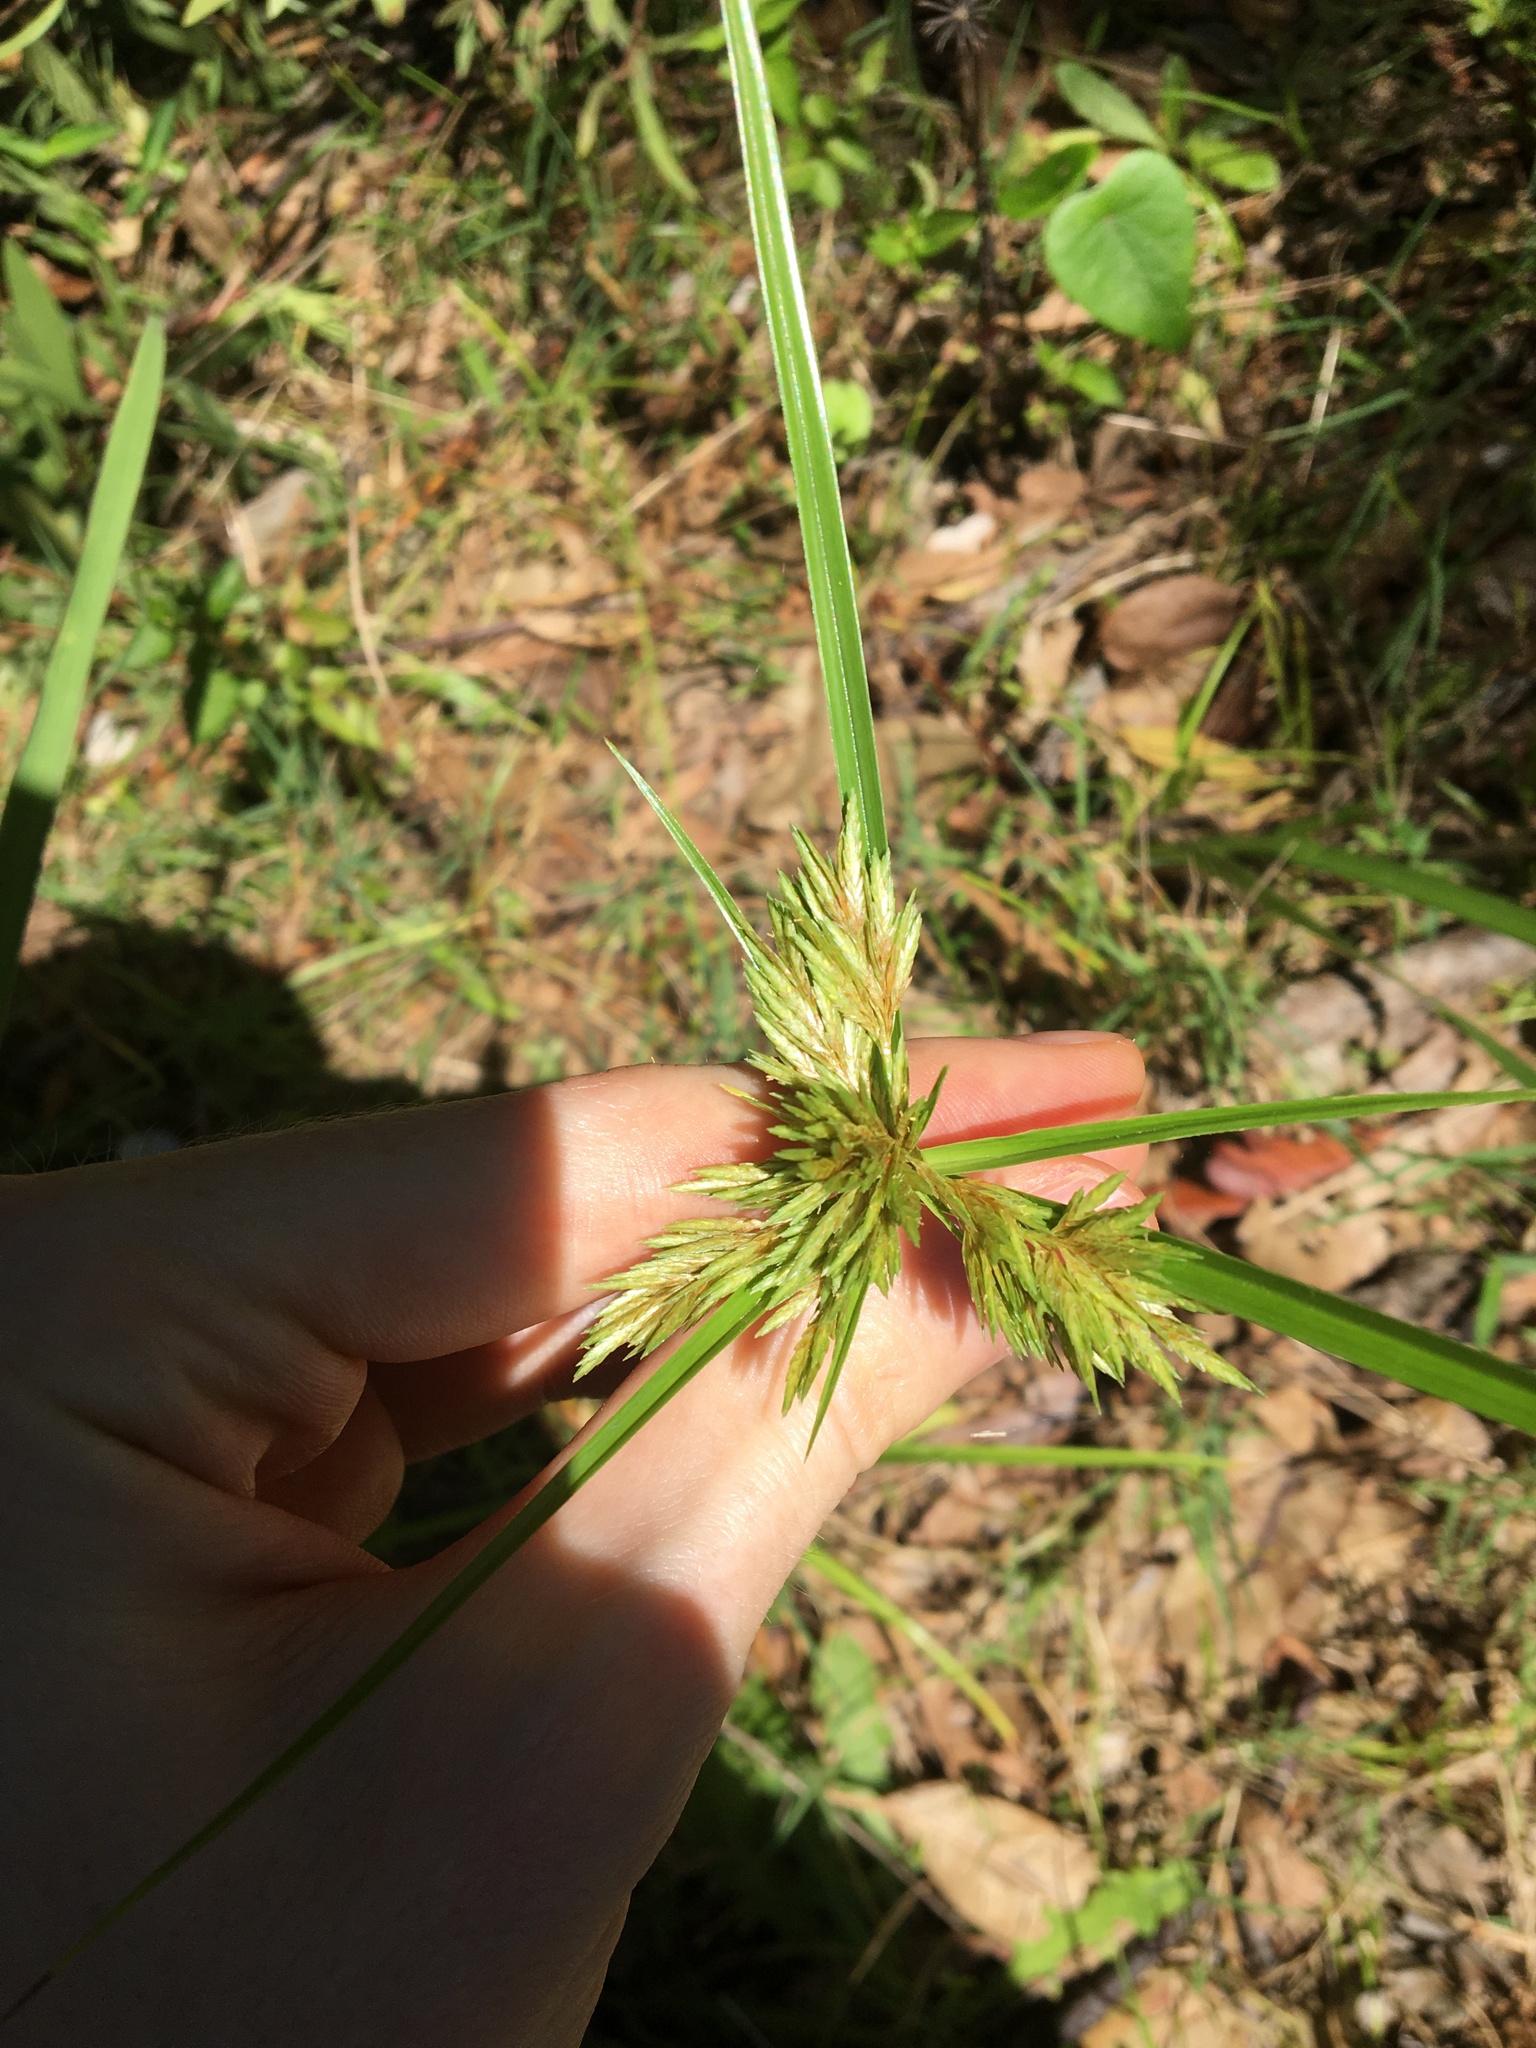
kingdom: Plantae
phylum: Tracheophyta
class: Liliopsida
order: Poales
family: Cyperaceae
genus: Cyperus
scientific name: Cyperus polystachyos
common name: Bunchy flat sedge
